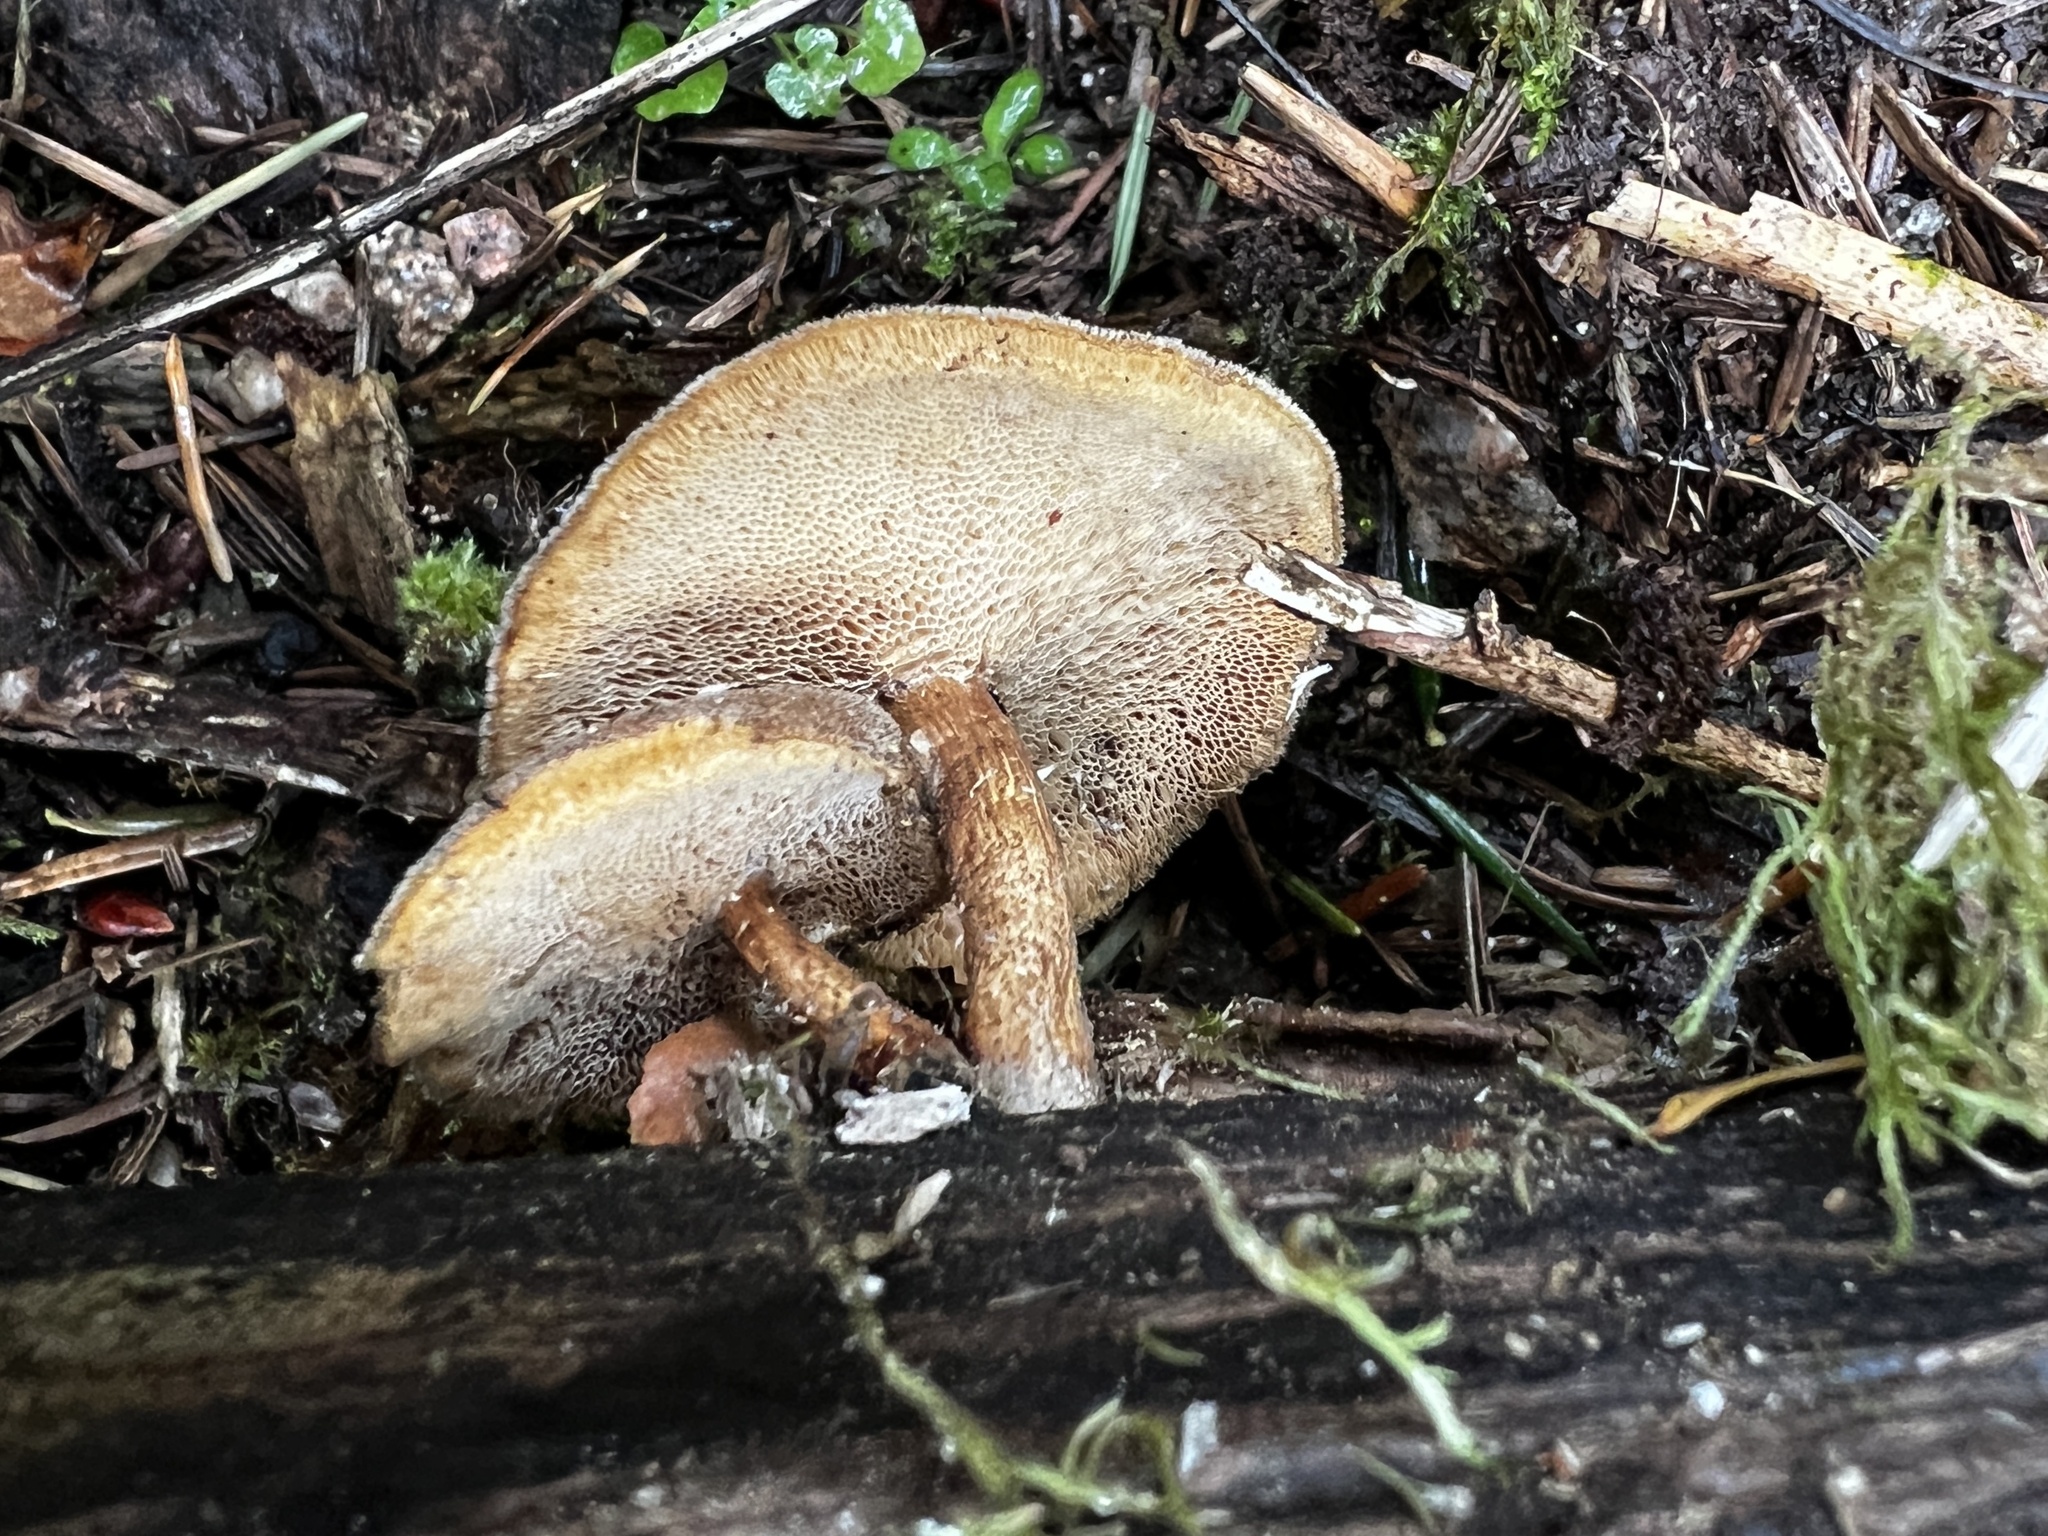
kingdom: Fungi
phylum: Basidiomycota
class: Agaricomycetes
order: Polyporales
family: Polyporaceae
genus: Lentinus
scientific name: Lentinus brumalis
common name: Winter polypore
